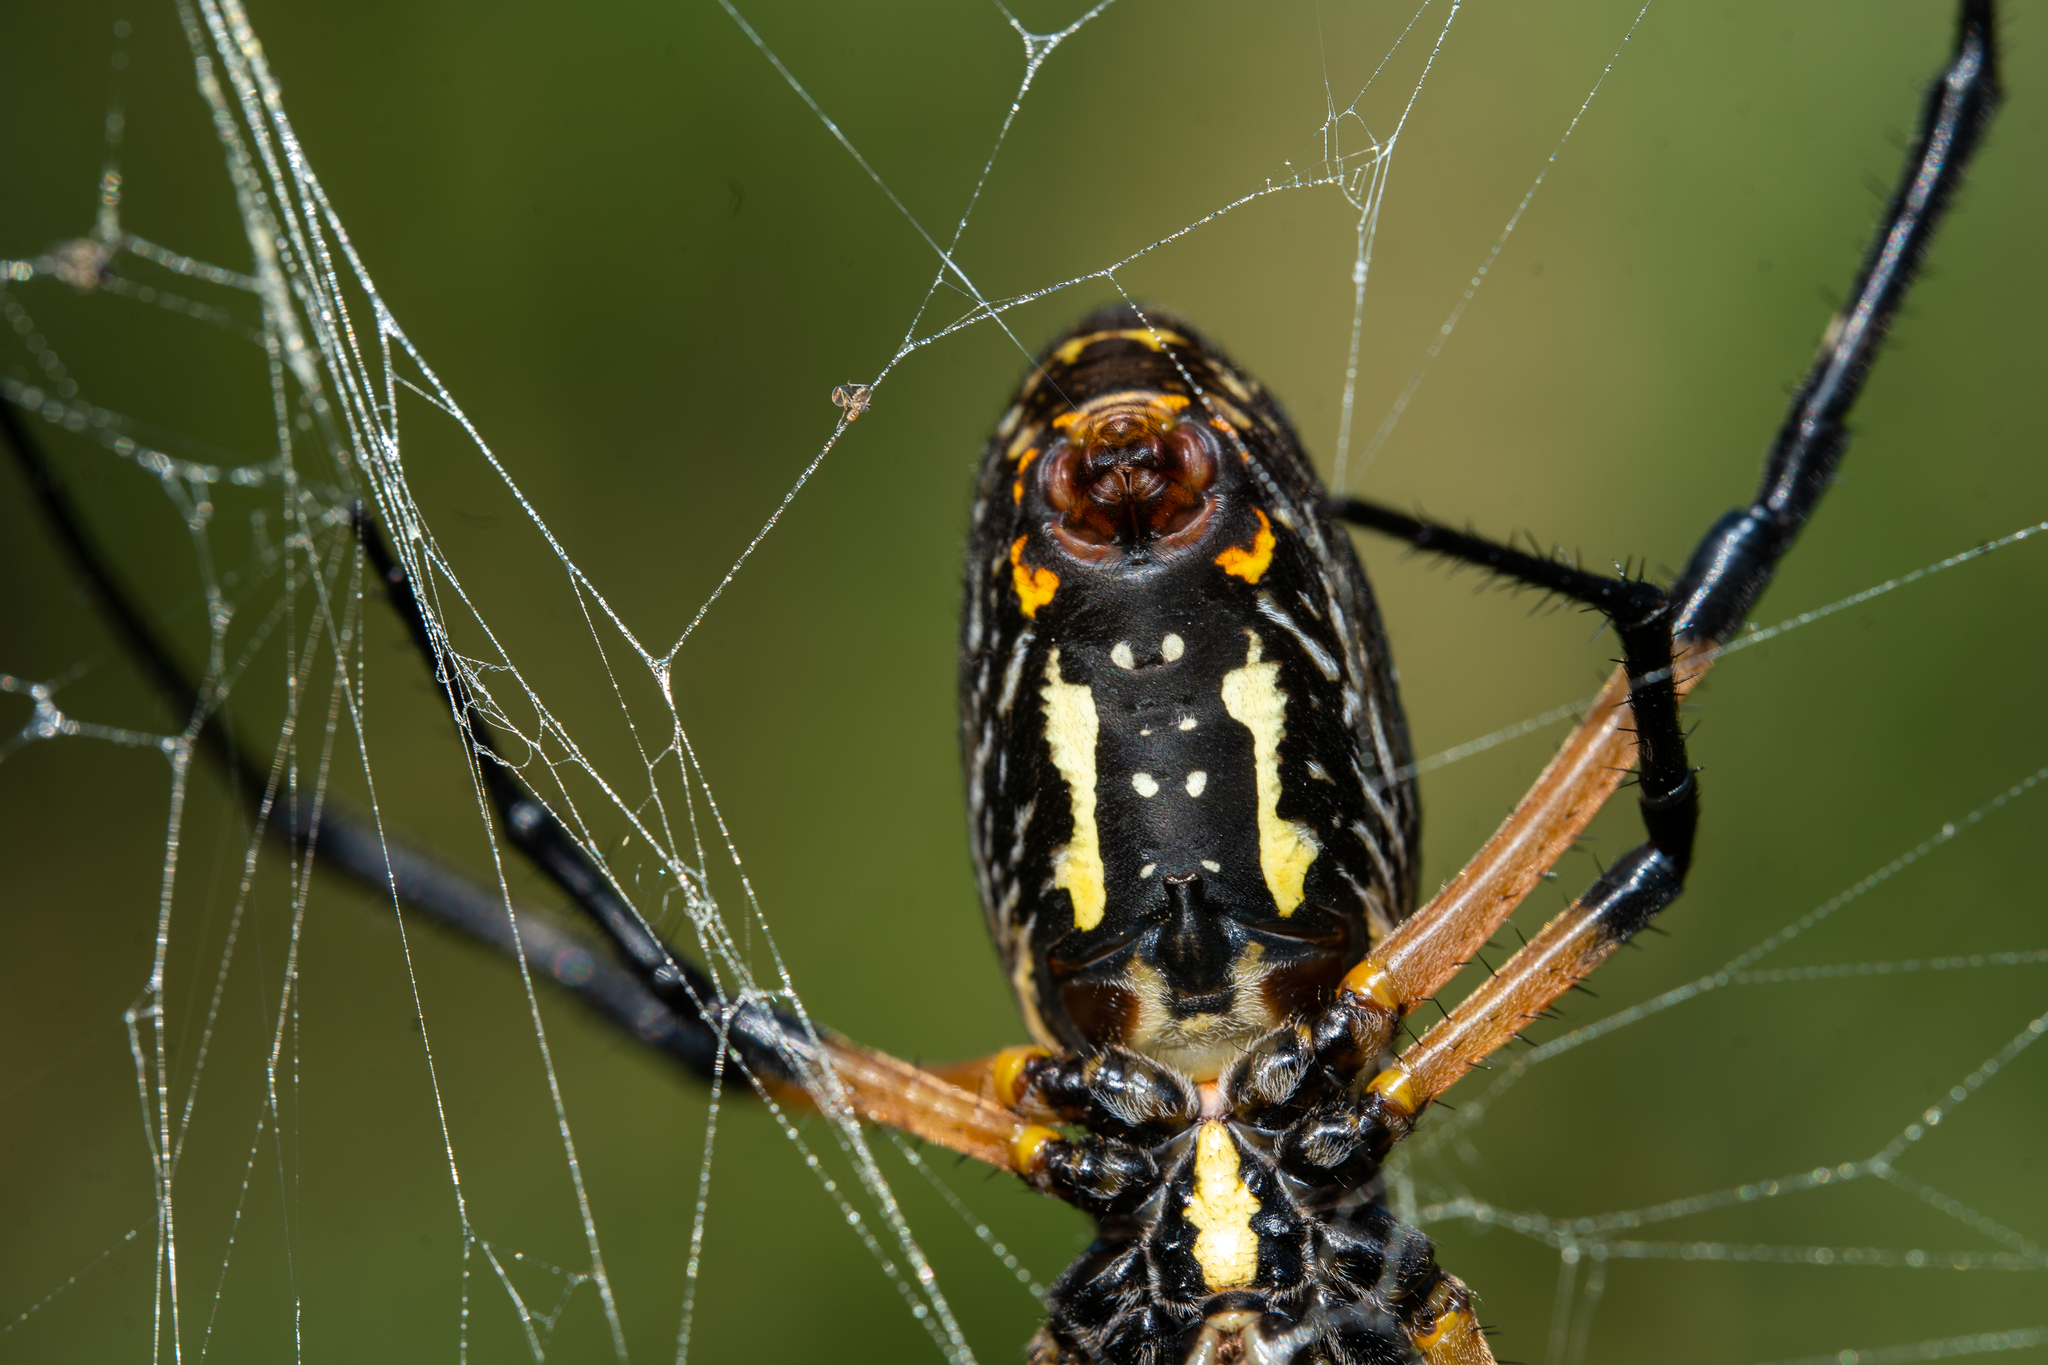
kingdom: Animalia
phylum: Arthropoda
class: Arachnida
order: Araneae
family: Araneidae
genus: Argiope
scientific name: Argiope aurantia
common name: Orb weavers
